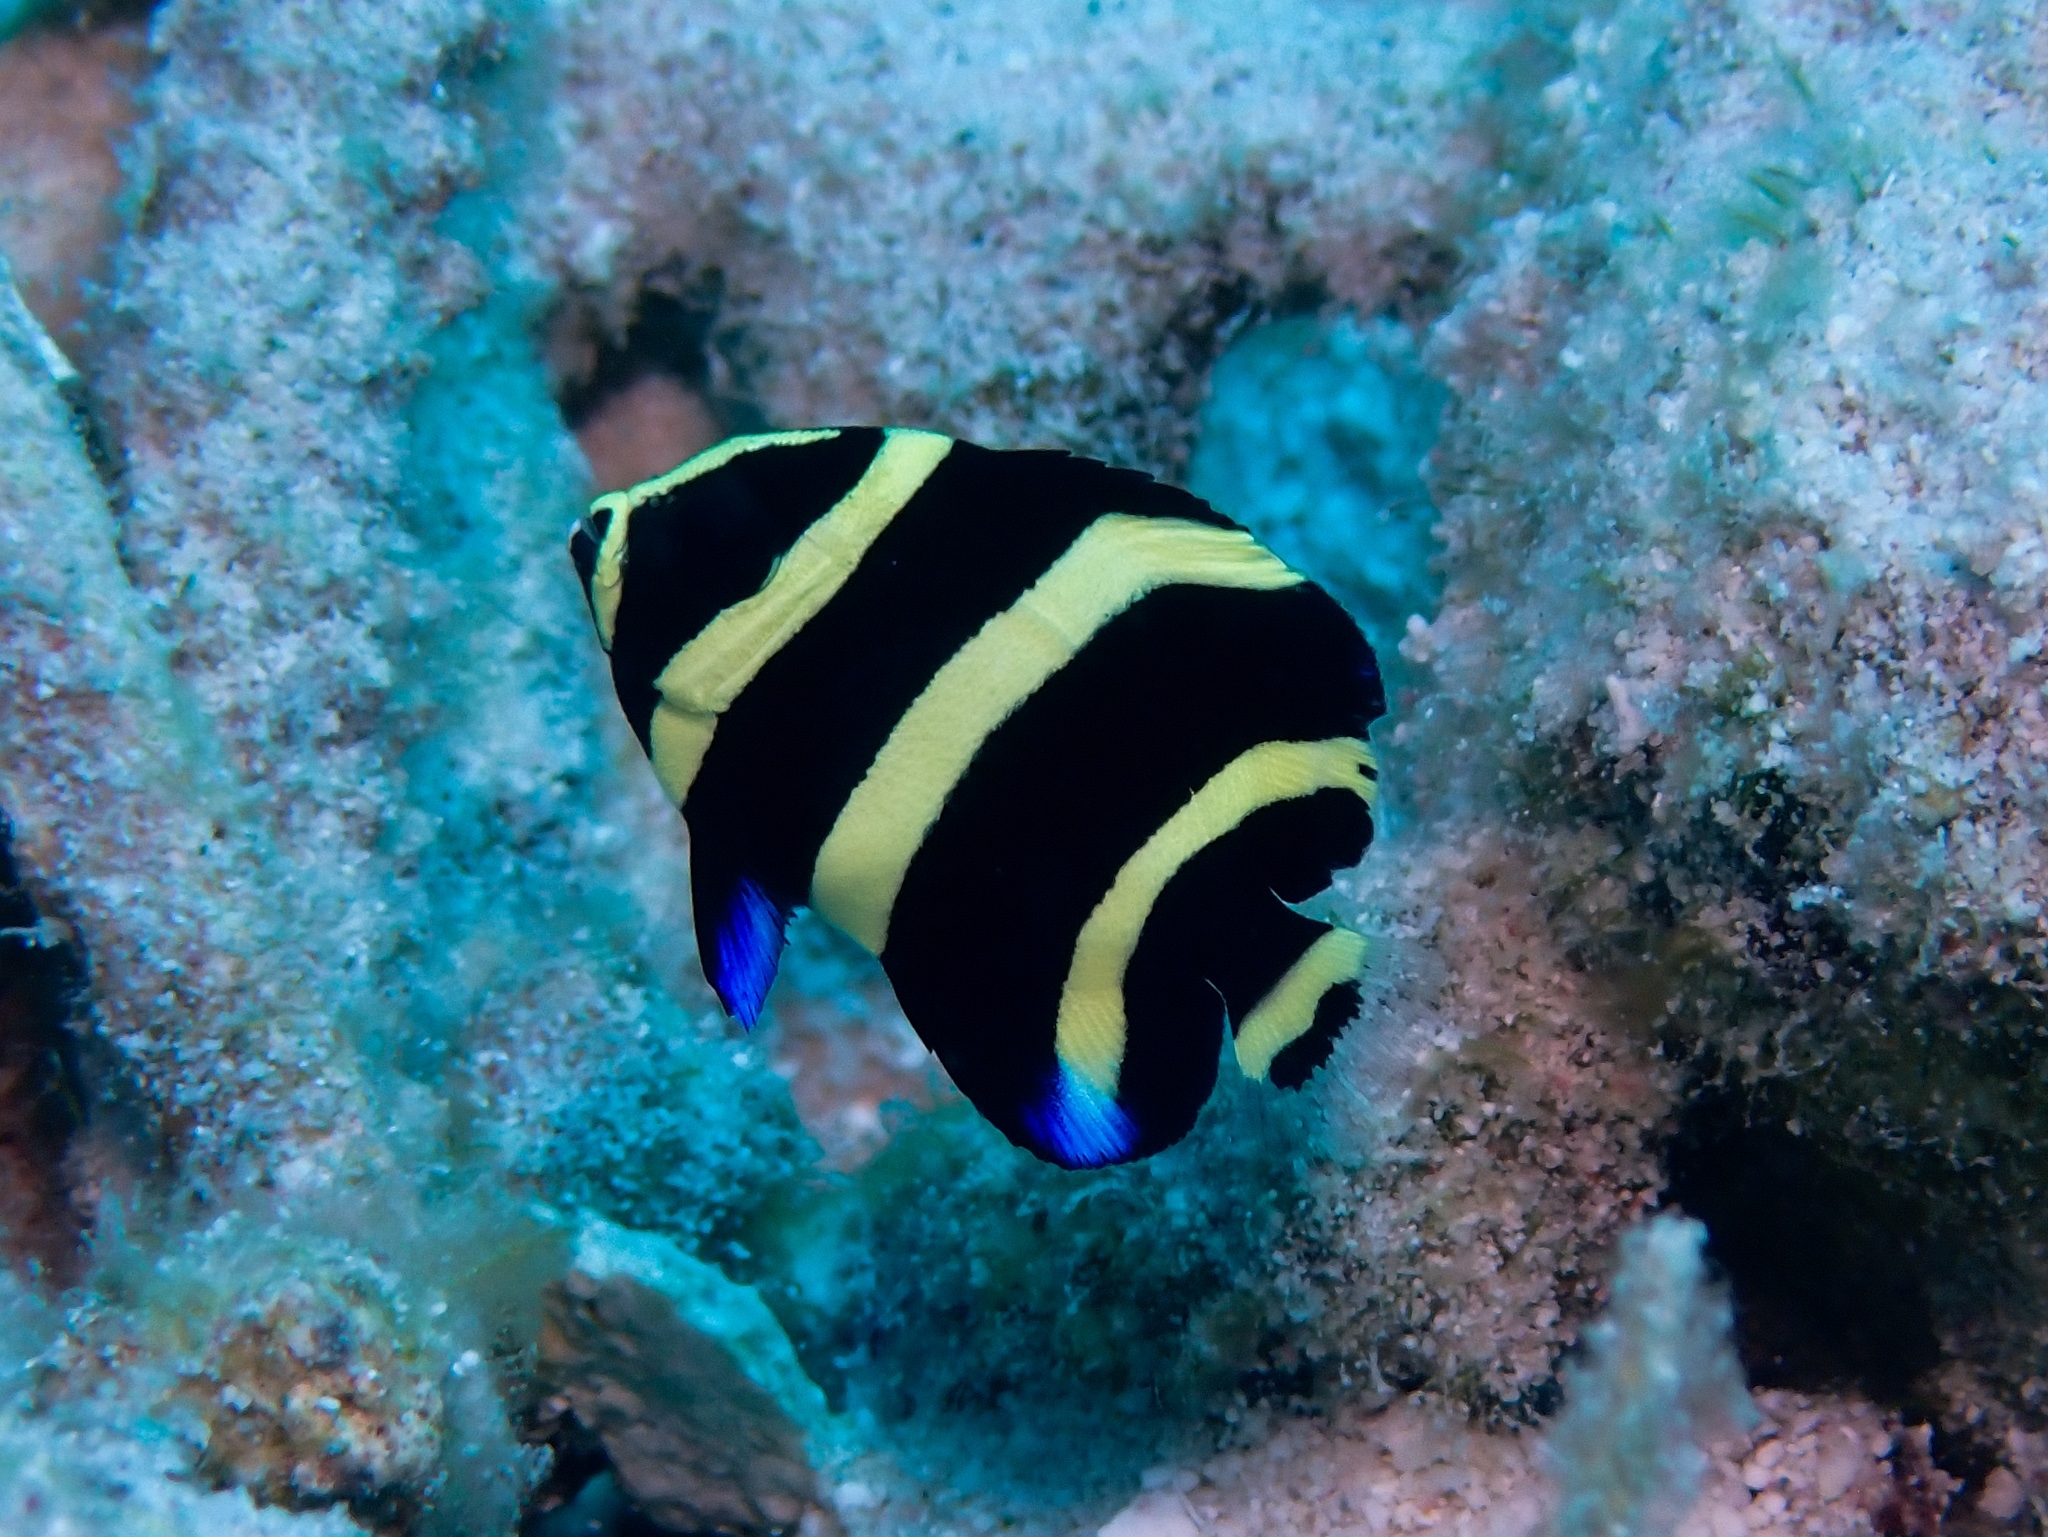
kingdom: Animalia
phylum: Chordata
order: Perciformes
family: Pomacanthidae
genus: Pomacanthus
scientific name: Pomacanthus arcuatus
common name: Gray angelfish
